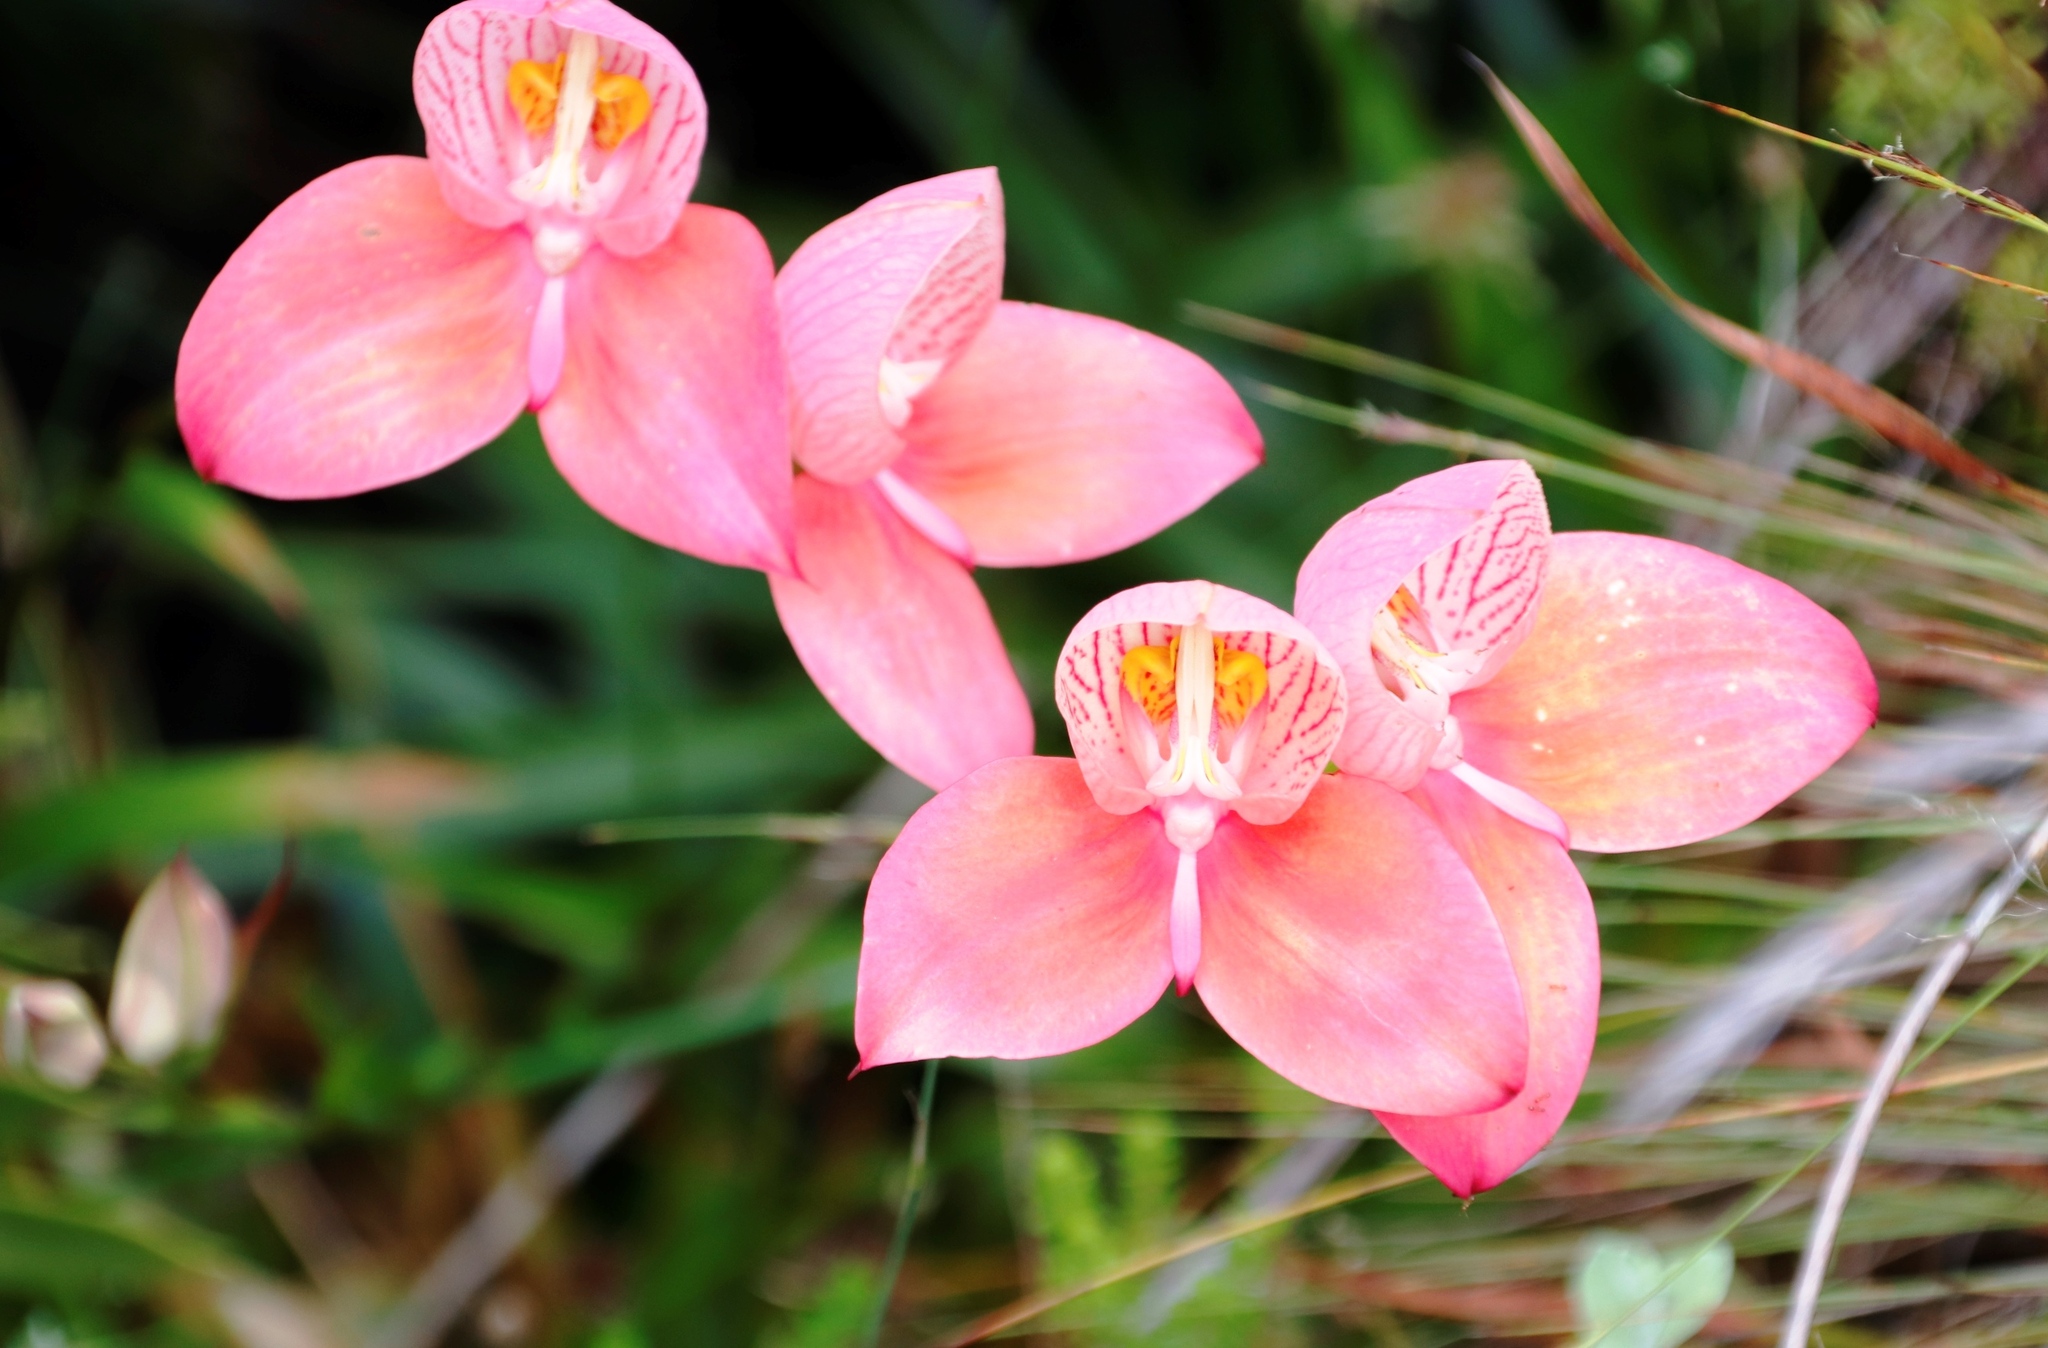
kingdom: Plantae
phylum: Tracheophyta
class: Liliopsida
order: Asparagales
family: Orchidaceae
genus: Disa
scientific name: Disa uniflora
